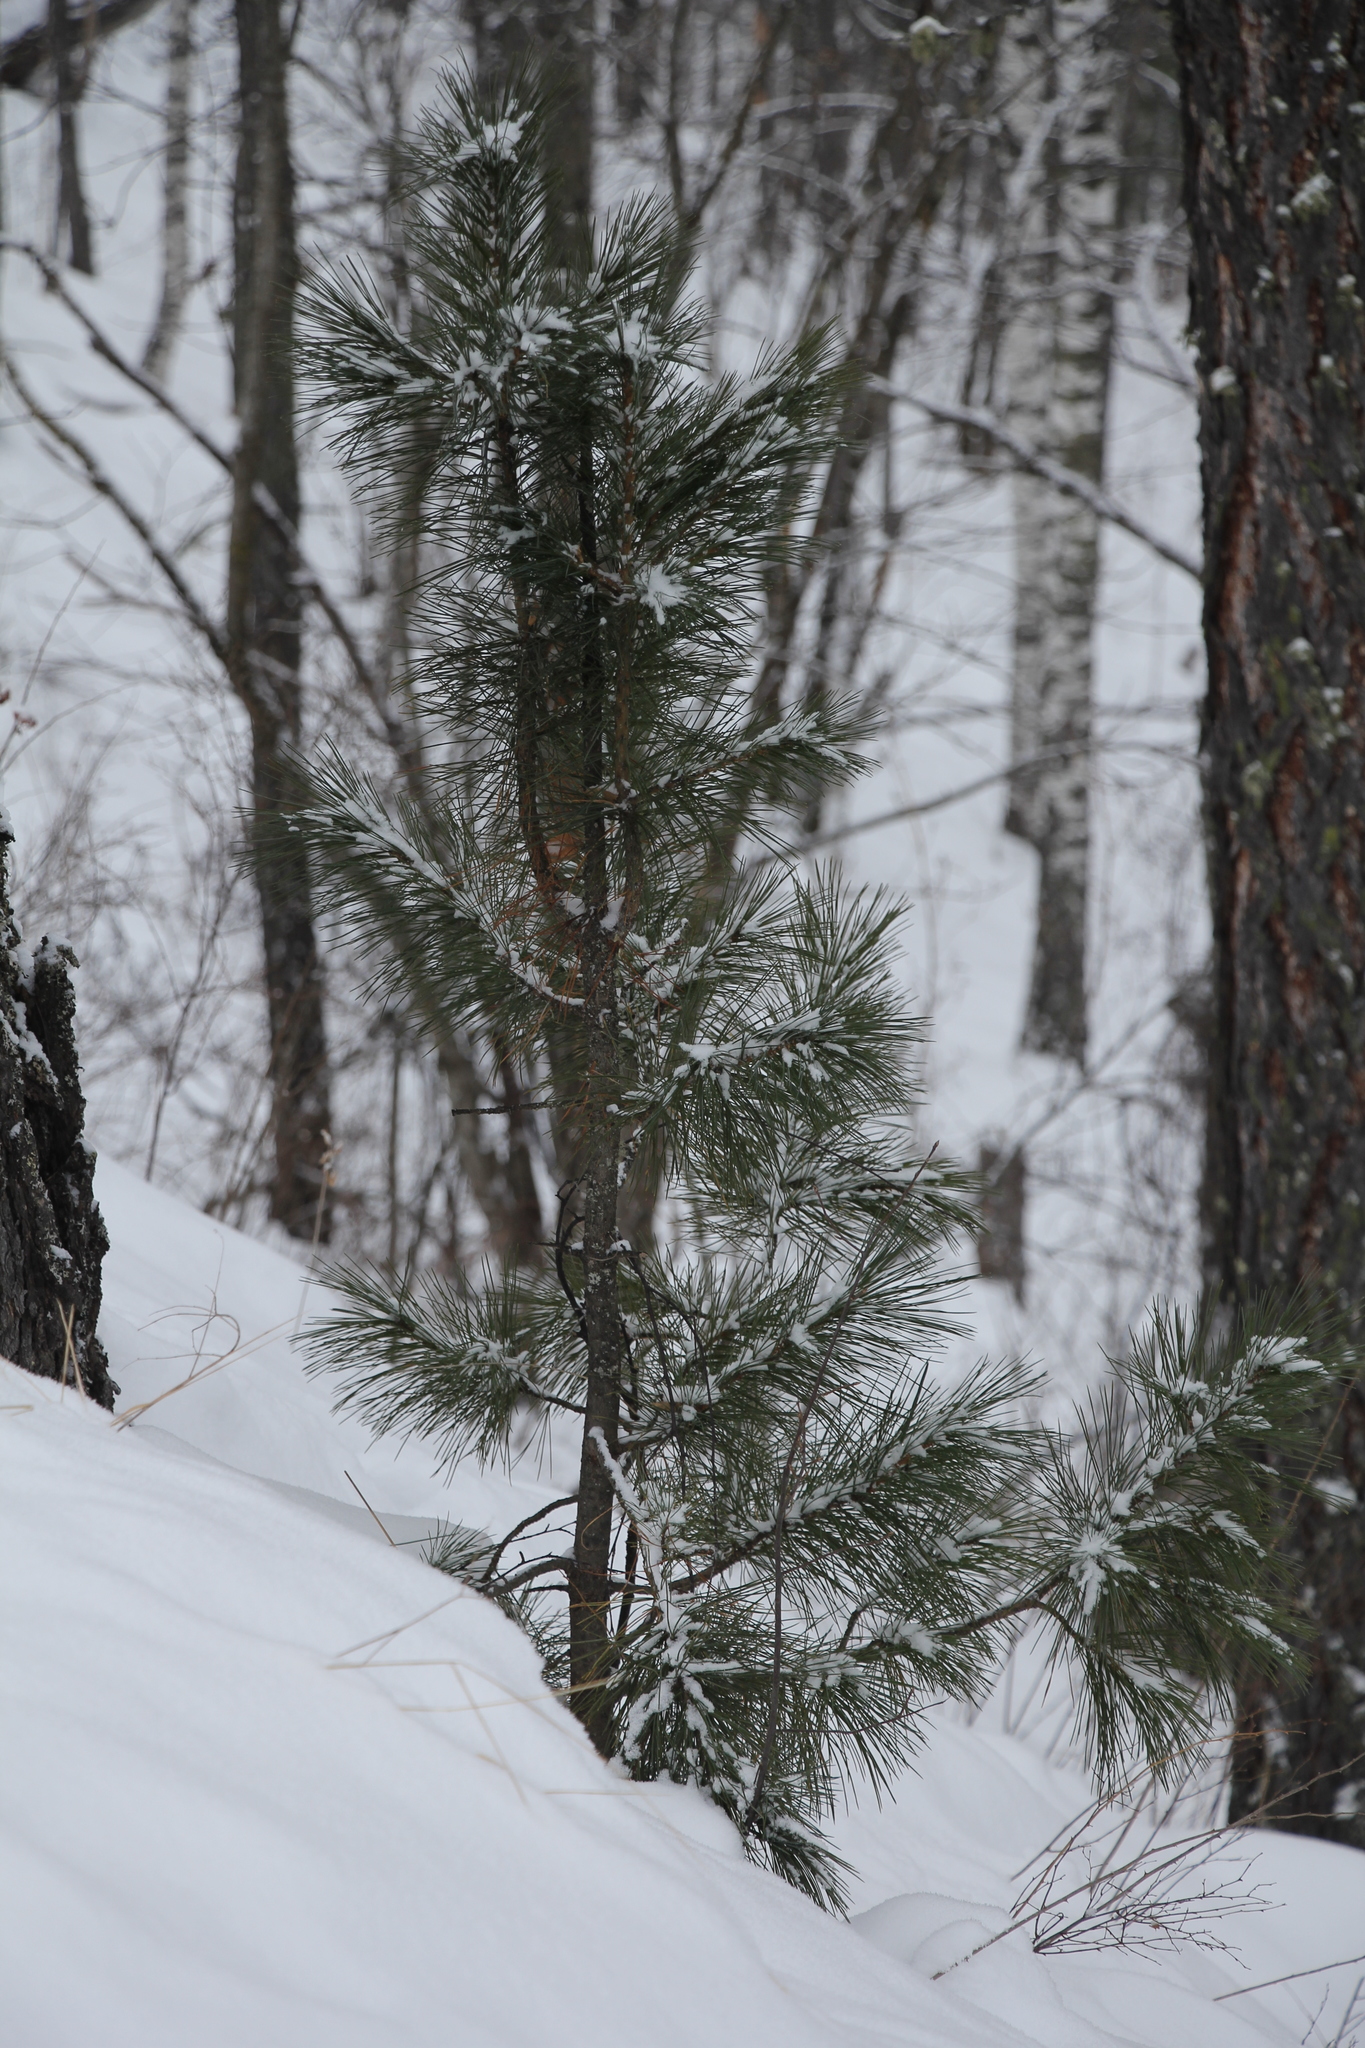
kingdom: Plantae
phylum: Tracheophyta
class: Pinopsida
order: Pinales
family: Pinaceae
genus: Pinus
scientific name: Pinus sibirica
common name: Siberian pine
